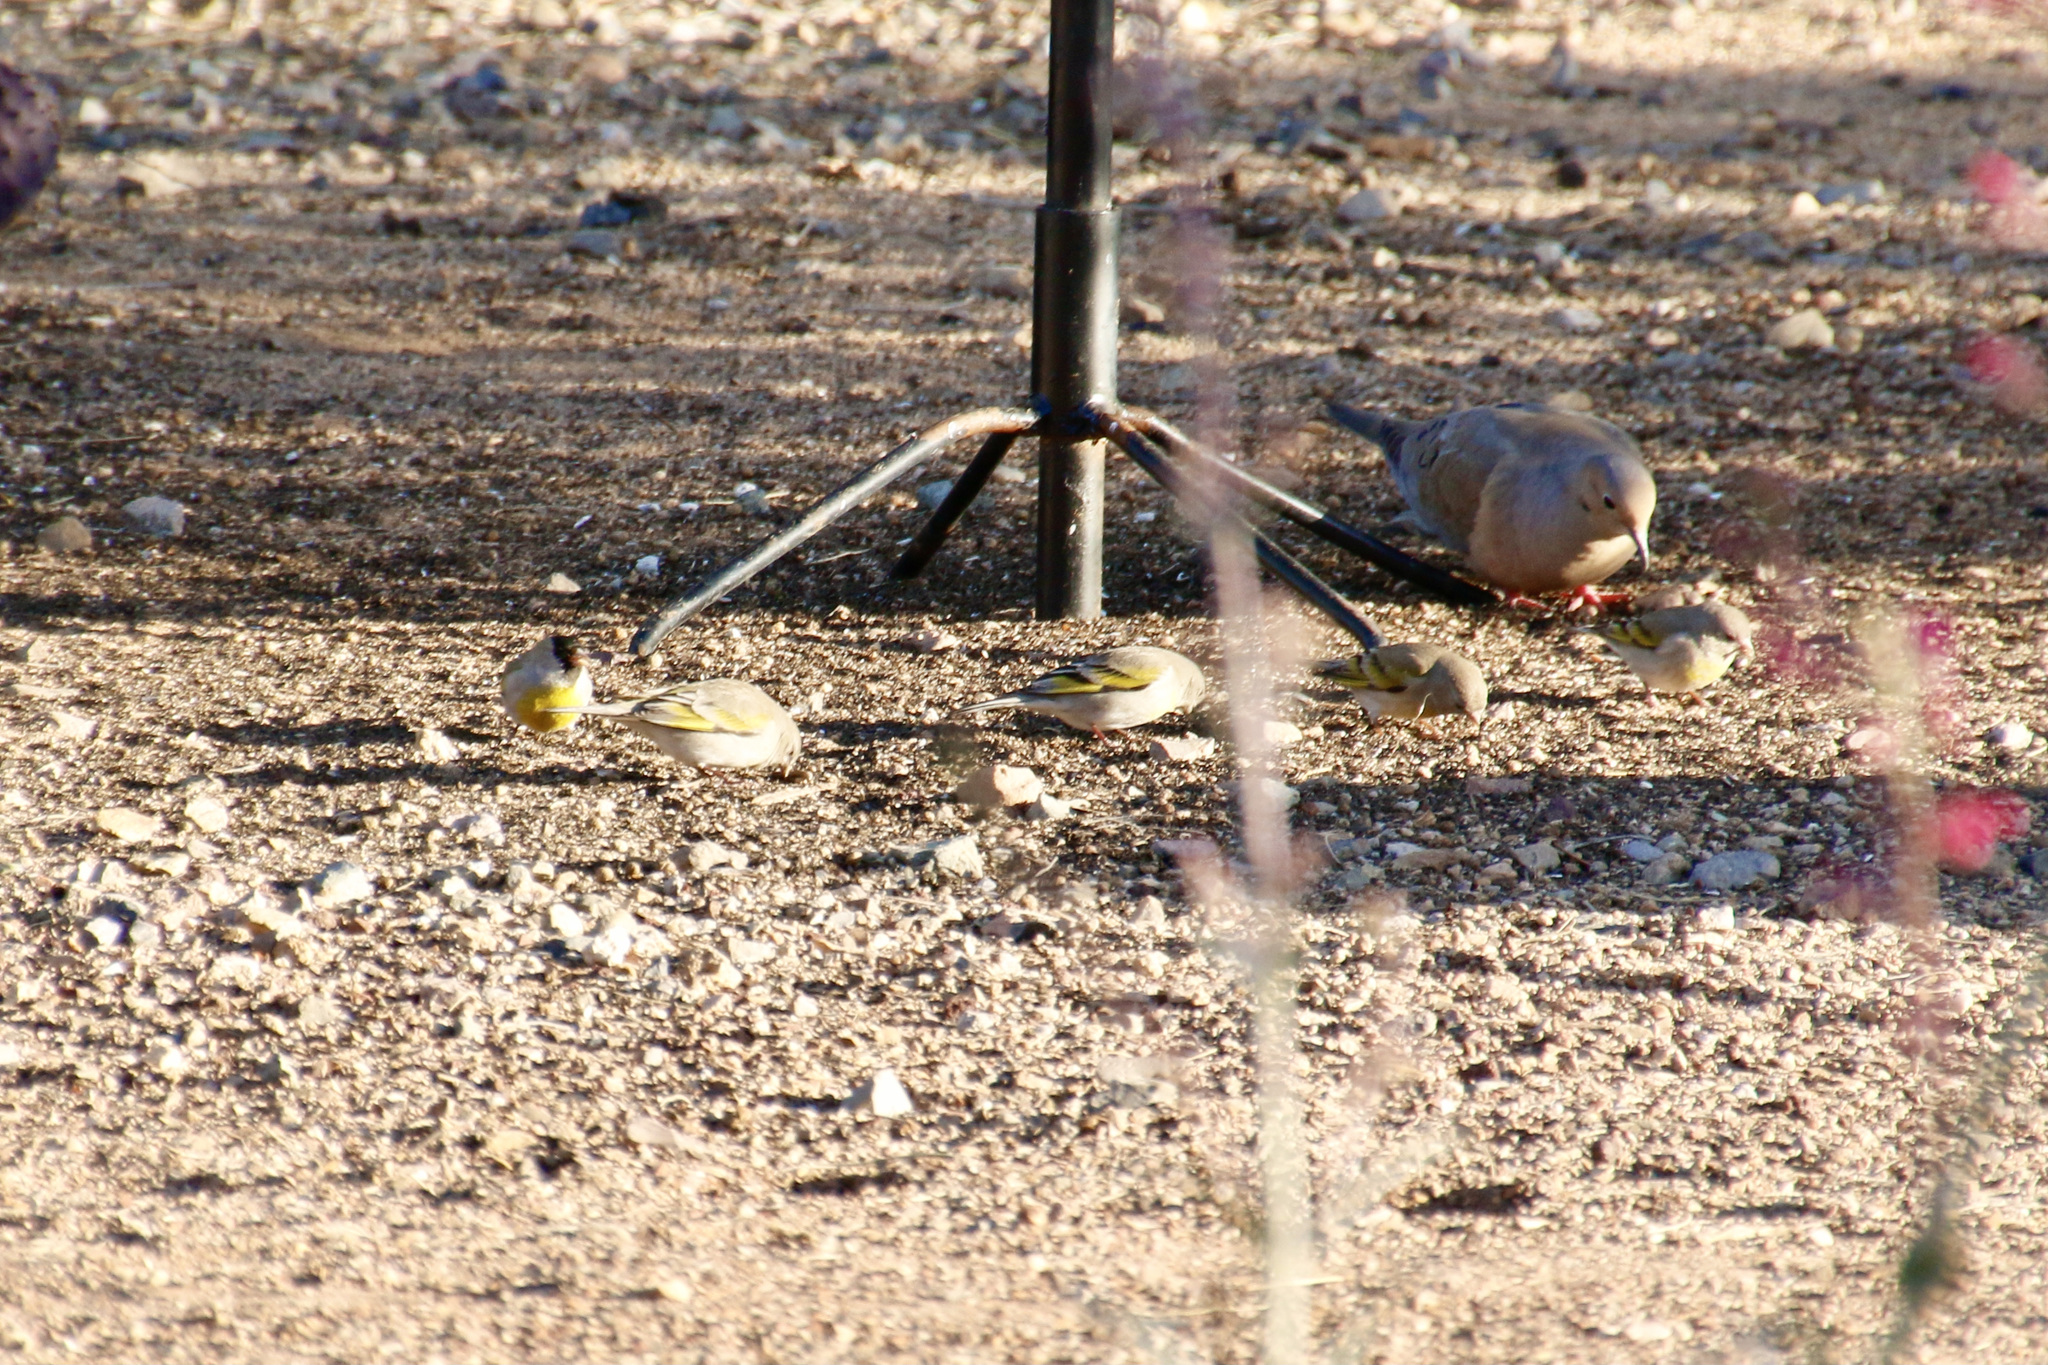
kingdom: Animalia
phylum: Chordata
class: Aves
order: Passeriformes
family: Fringillidae
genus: Spinus
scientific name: Spinus lawrencei
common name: Lawrence's goldfinch
